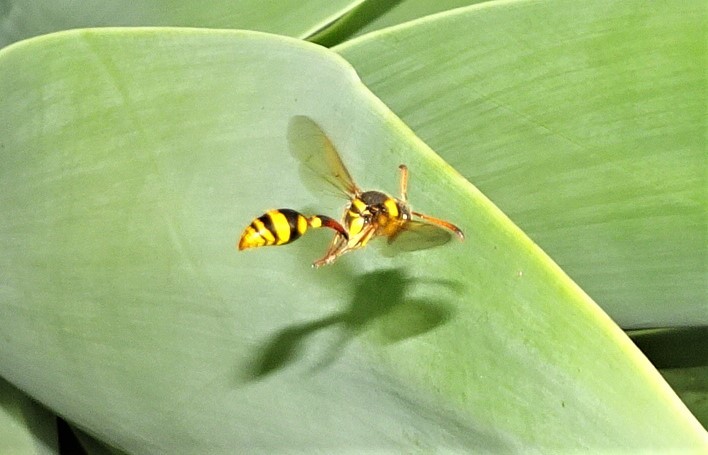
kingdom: Animalia
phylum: Arthropoda
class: Insecta
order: Hymenoptera
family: Eumenidae
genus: Delta
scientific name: Delta campaniforme
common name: Yellow and black potter wasp
